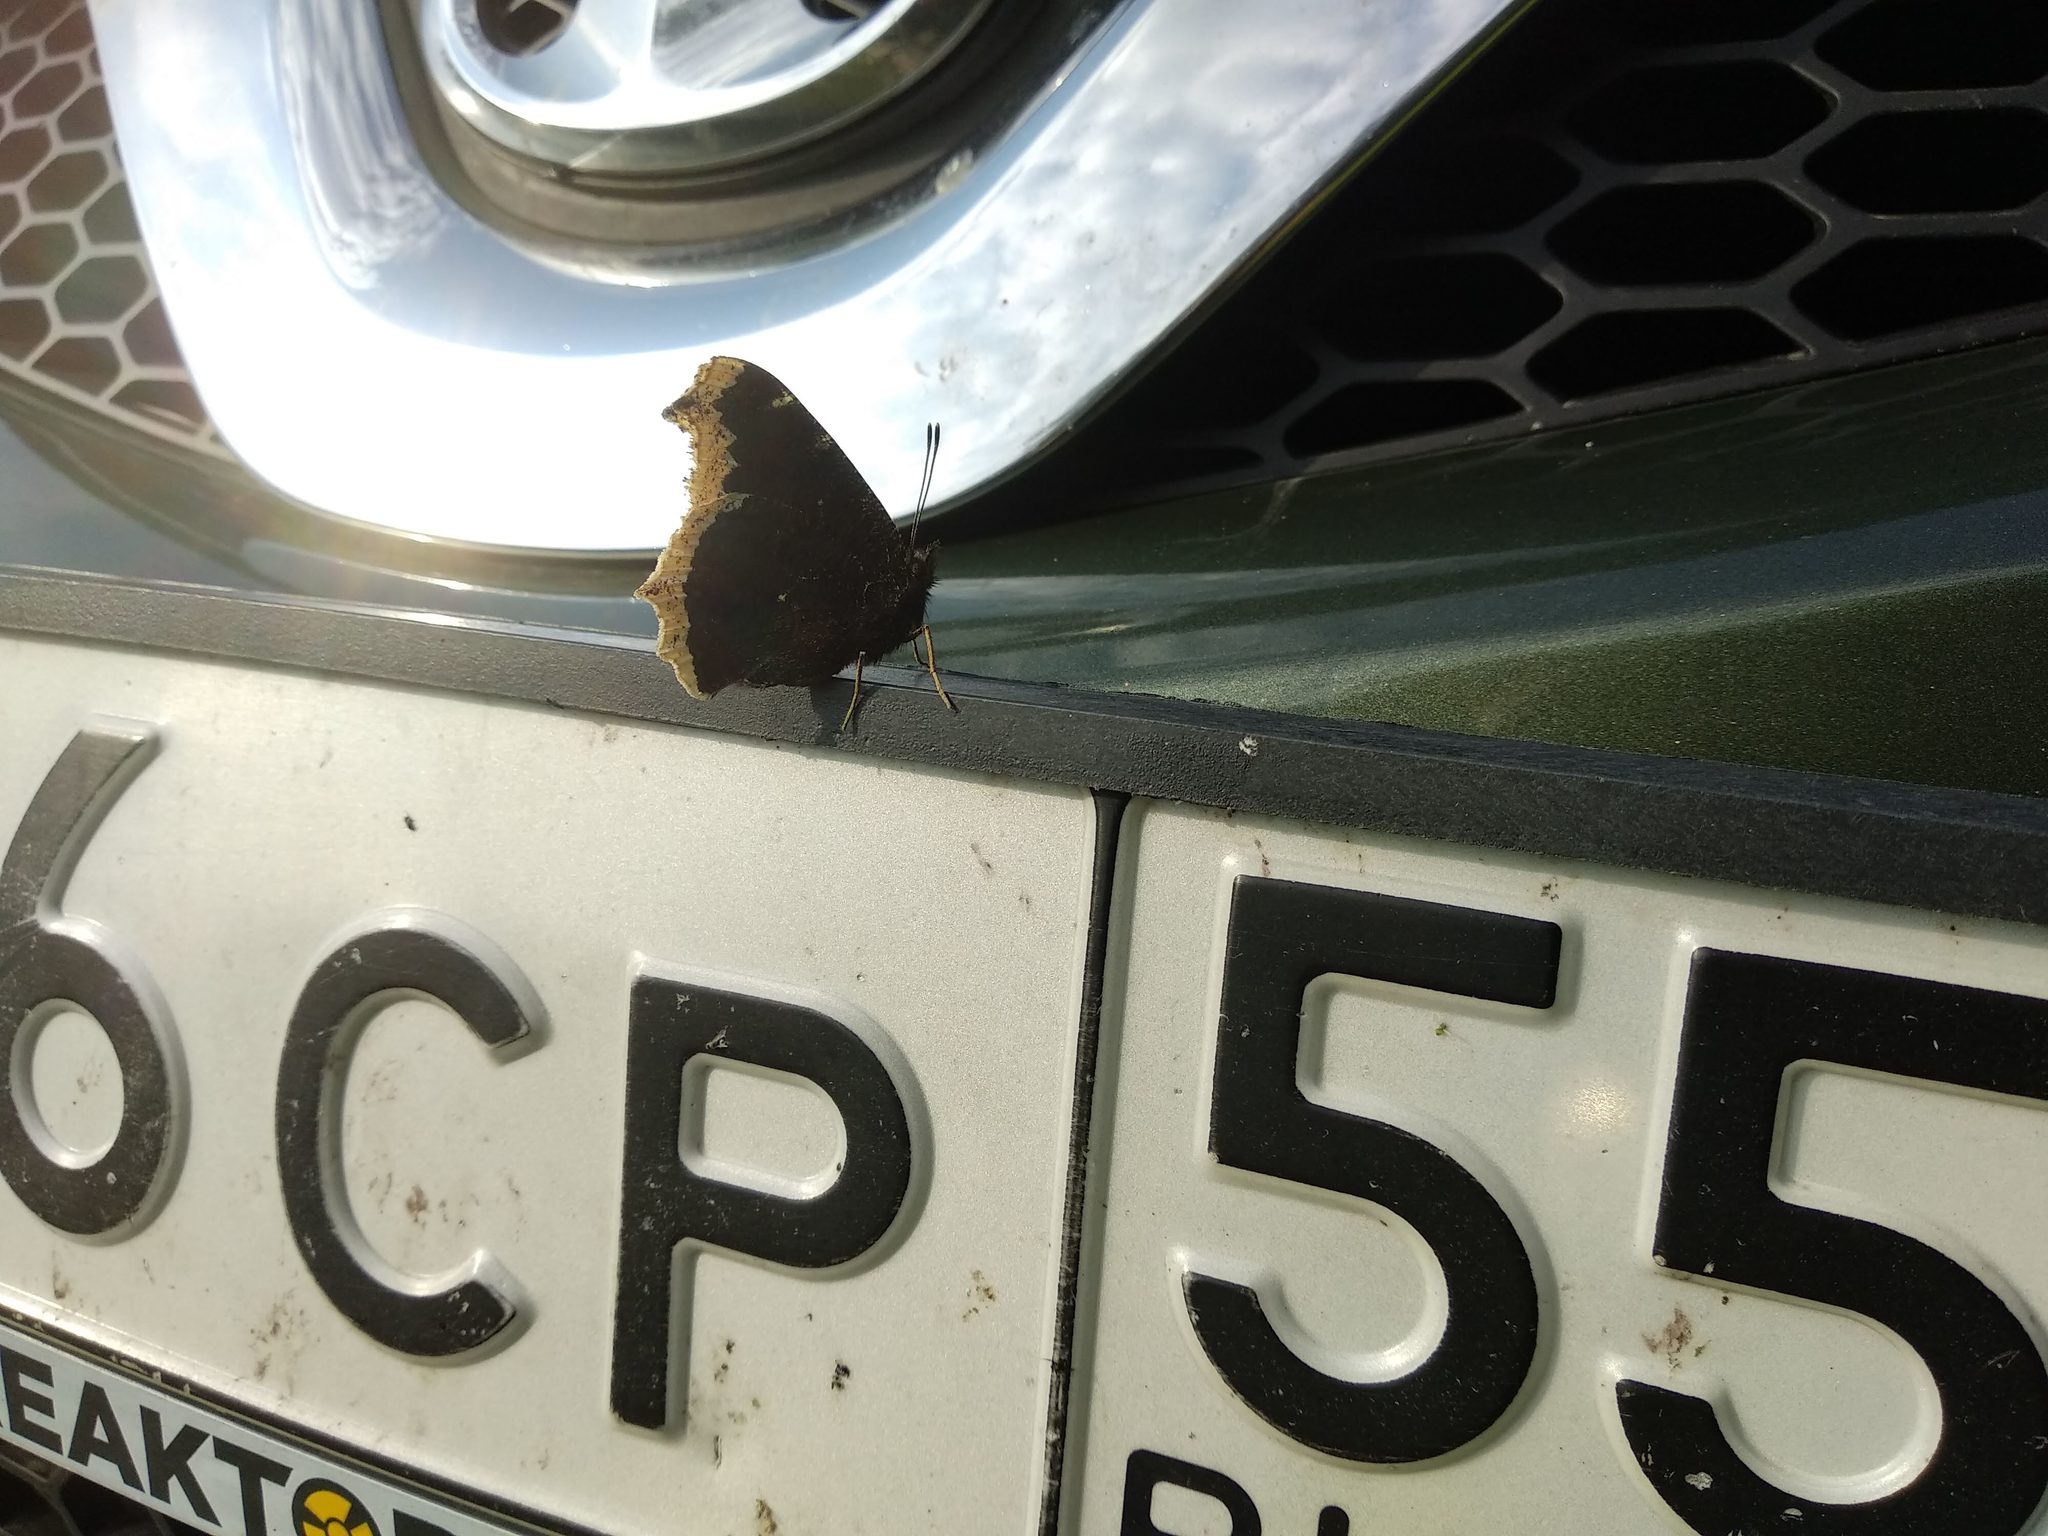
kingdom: Animalia
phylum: Arthropoda
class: Insecta
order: Lepidoptera
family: Nymphalidae
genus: Nymphalis
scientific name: Nymphalis antiopa
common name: Camberwell beauty
